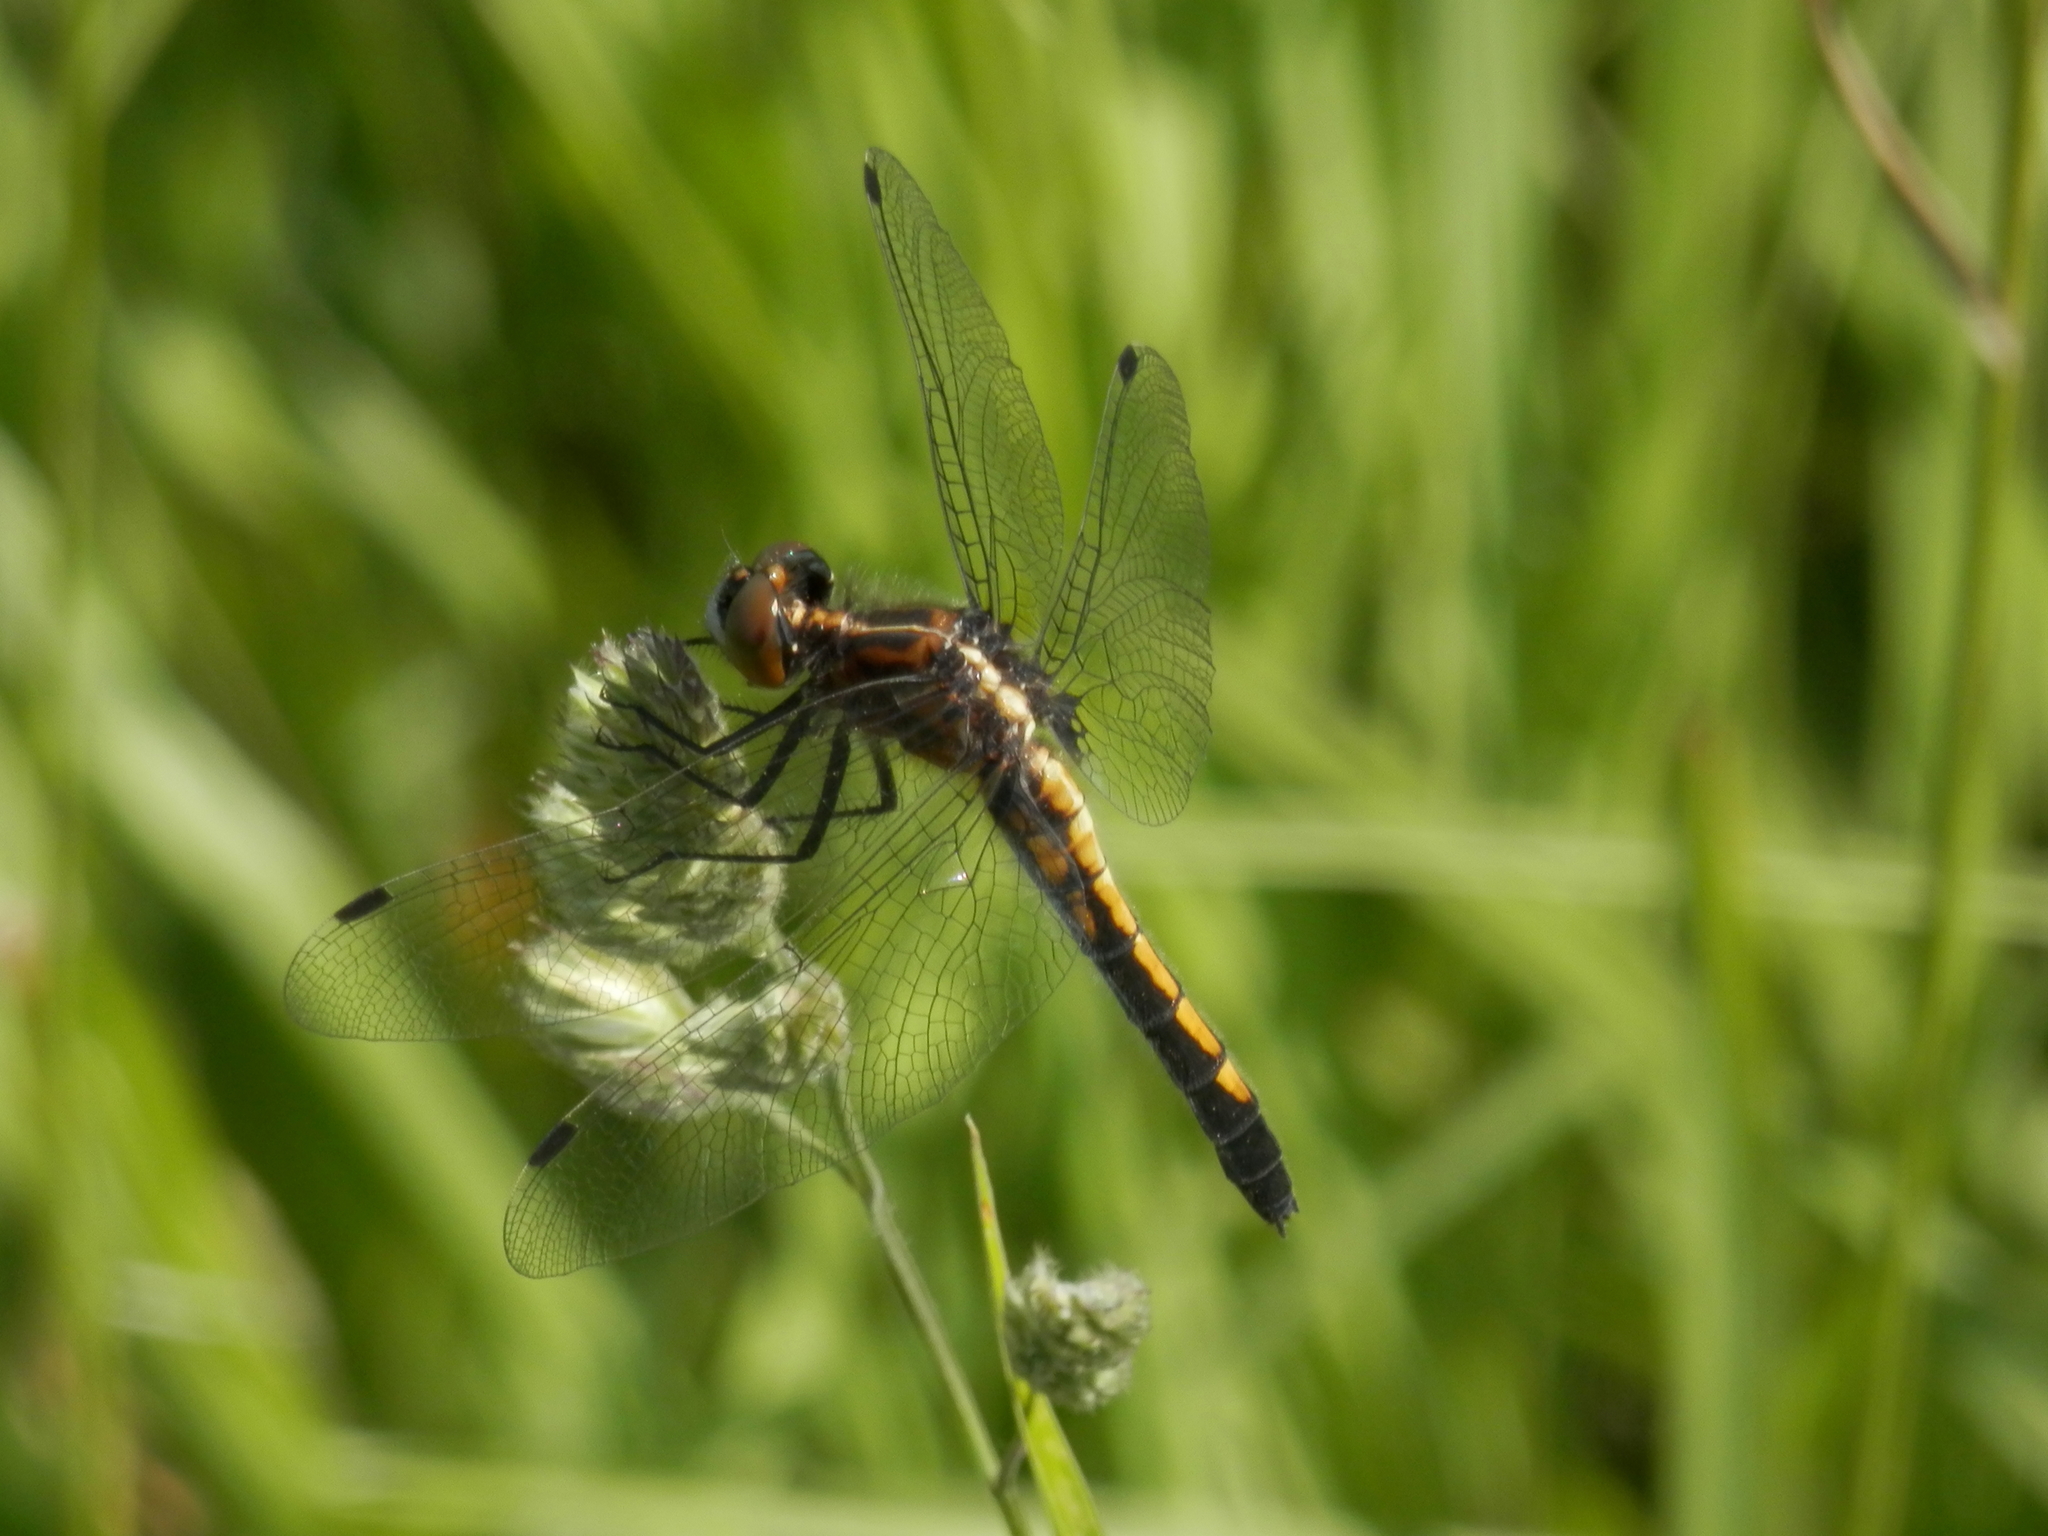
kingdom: Animalia
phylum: Arthropoda
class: Insecta
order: Odonata
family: Libellulidae
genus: Leucorrhinia
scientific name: Leucorrhinia intacta
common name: Dot-tailed whiteface
